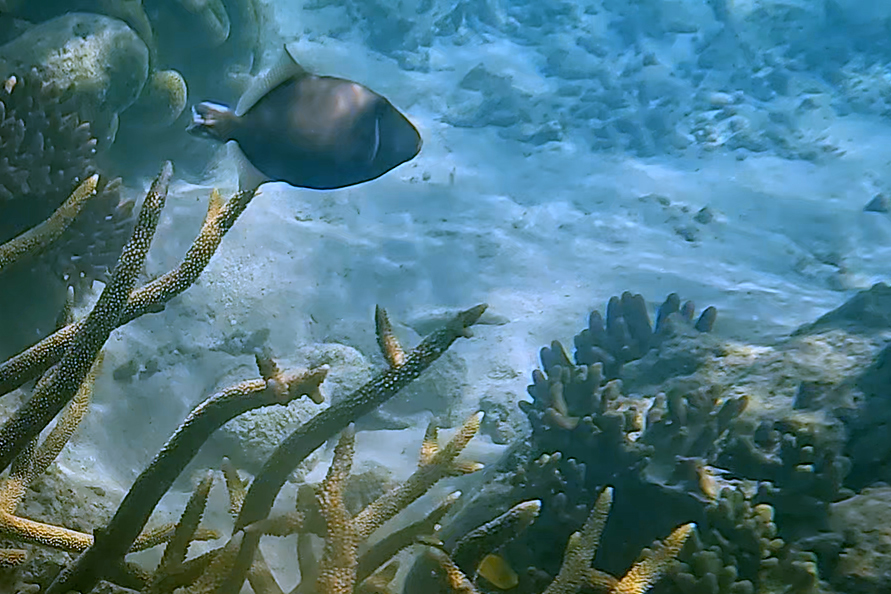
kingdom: Animalia
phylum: Chordata
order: Tetraodontiformes
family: Balistidae
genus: Sufflamen
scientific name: Sufflamen chrysopterum
